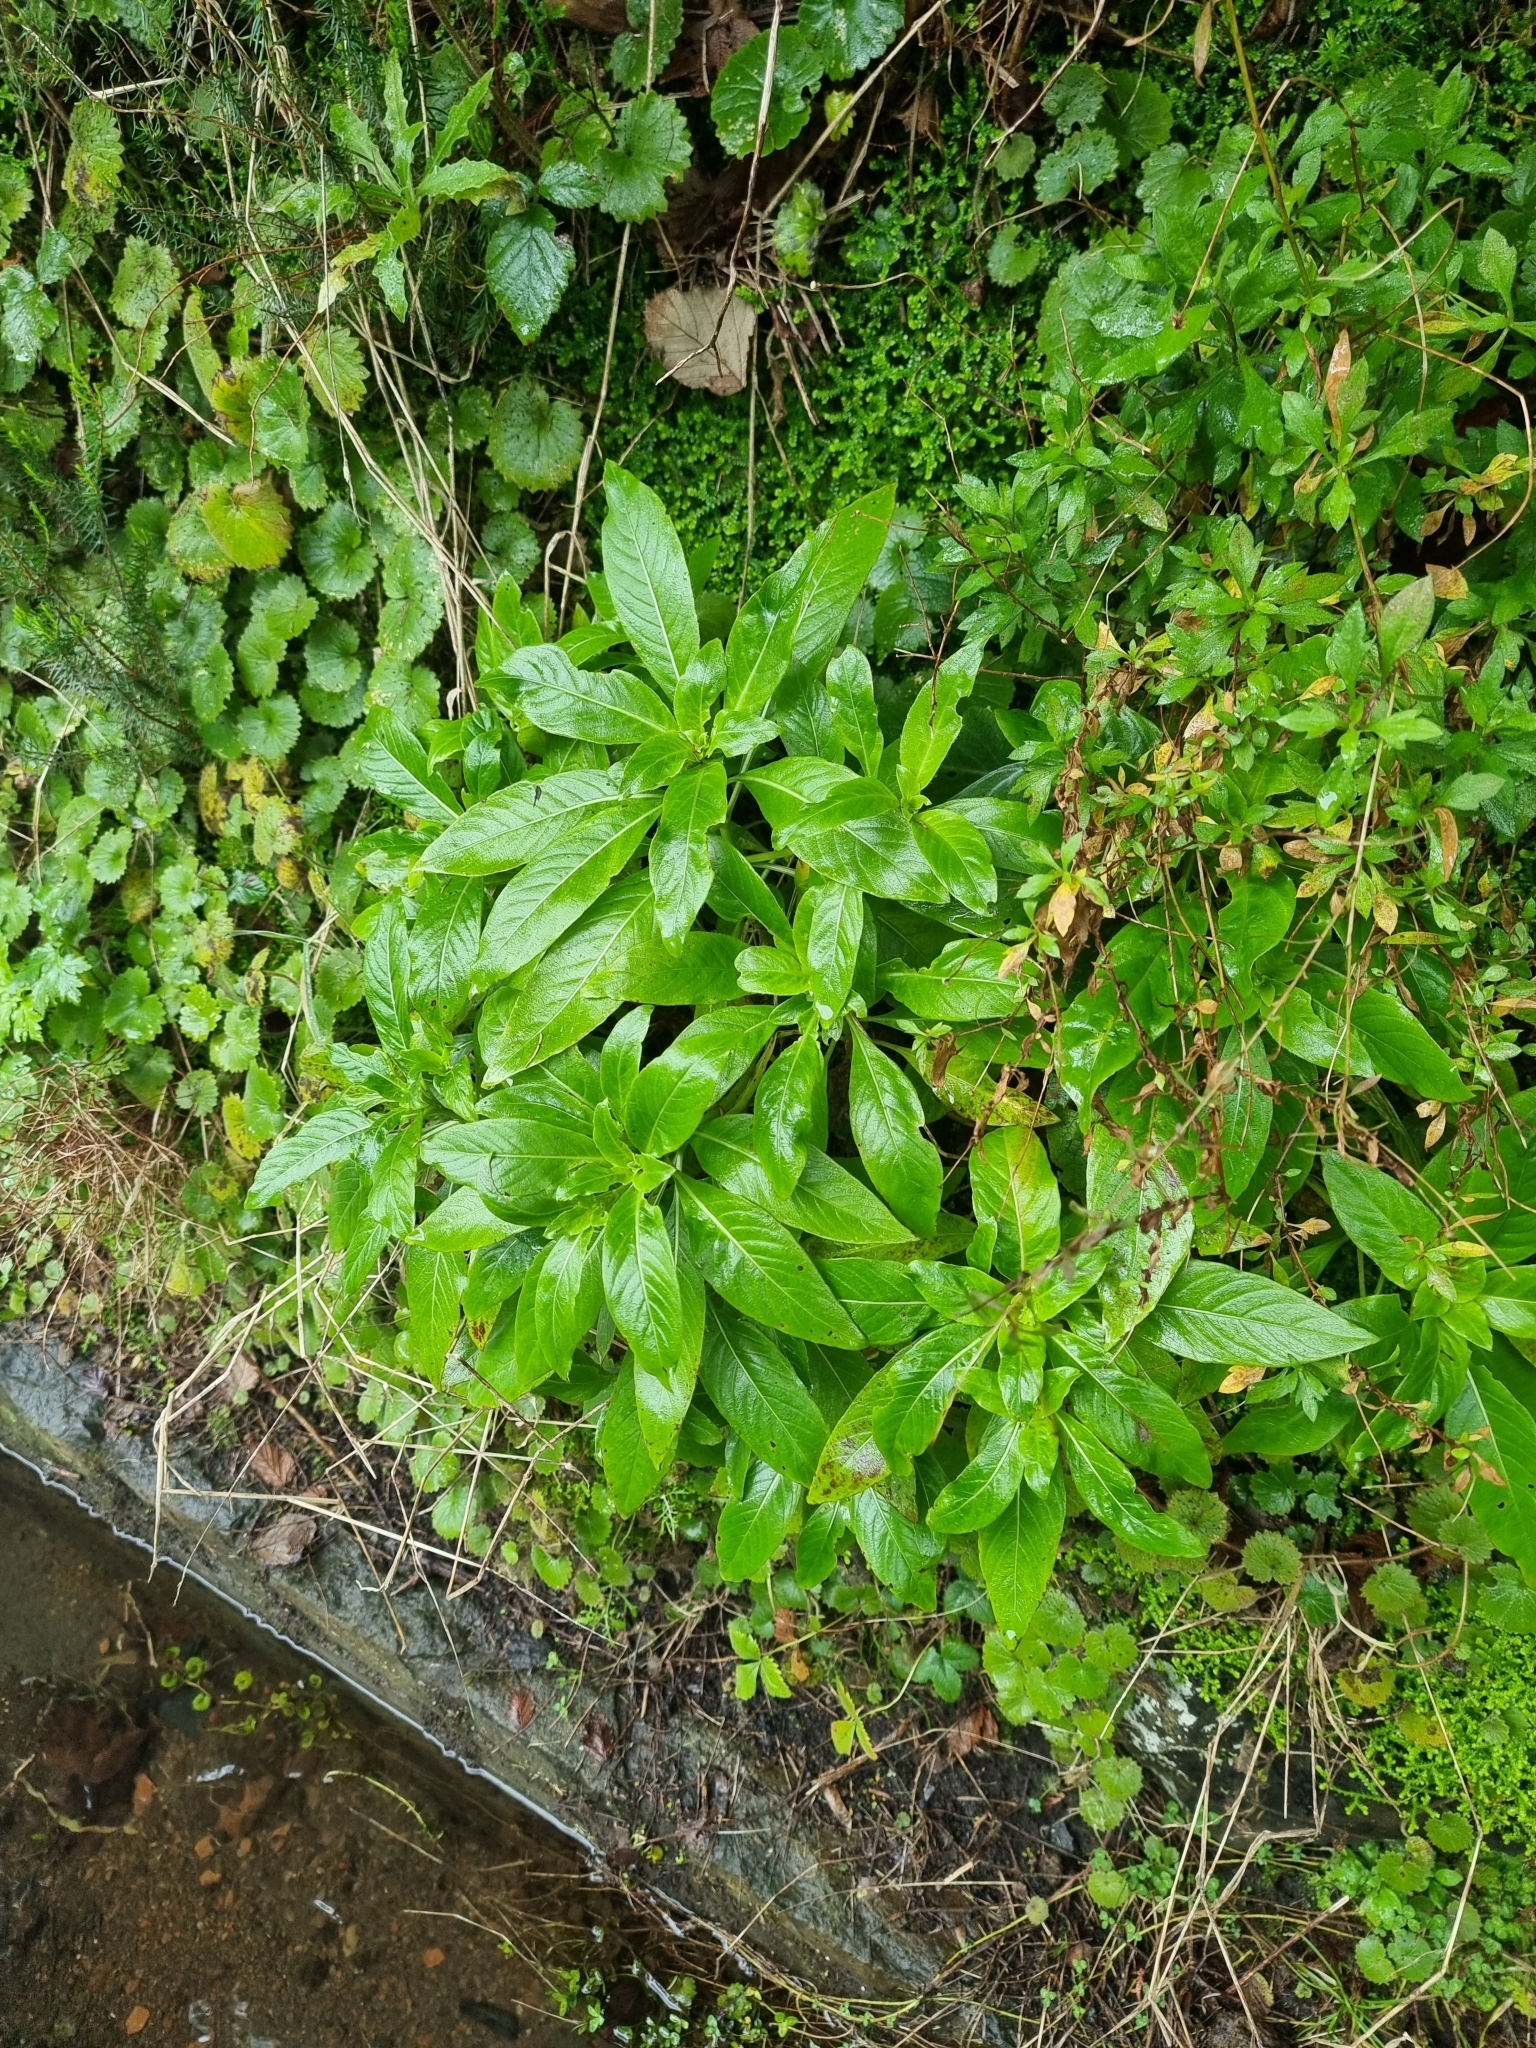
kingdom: Plantae
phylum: Tracheophyta
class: Magnoliopsida
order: Gentianales
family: Rubiaceae
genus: Phyllis
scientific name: Phyllis nobla
